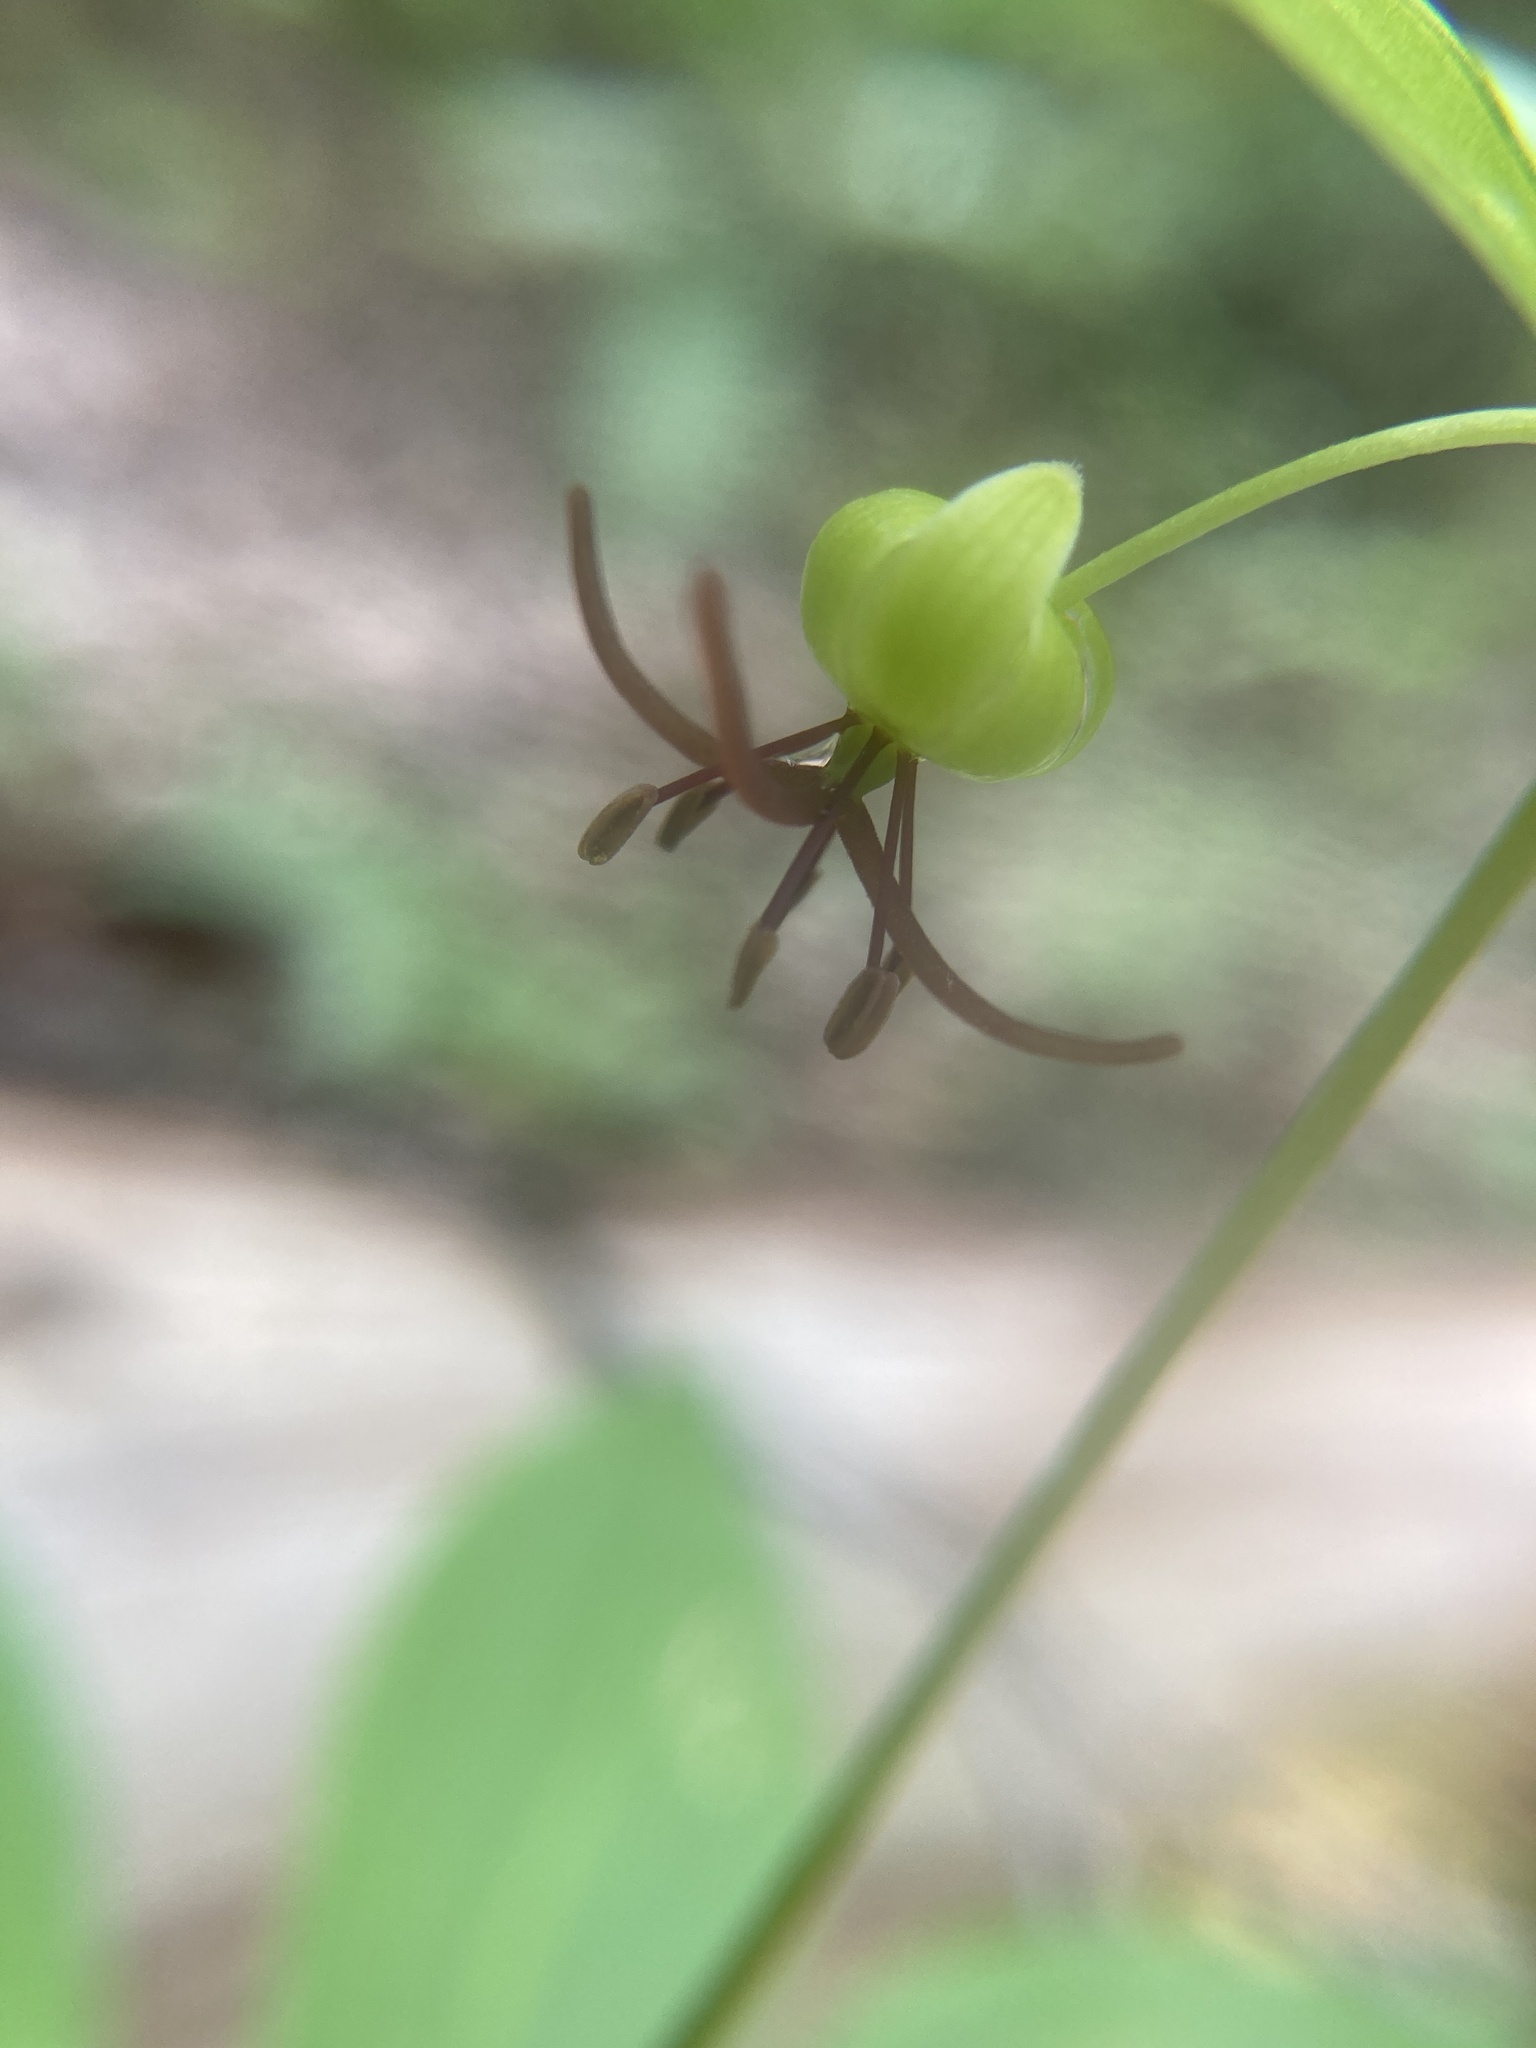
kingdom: Plantae
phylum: Tracheophyta
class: Liliopsida
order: Liliales
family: Liliaceae
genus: Medeola
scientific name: Medeola virginiana
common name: Indian cucumber-root
